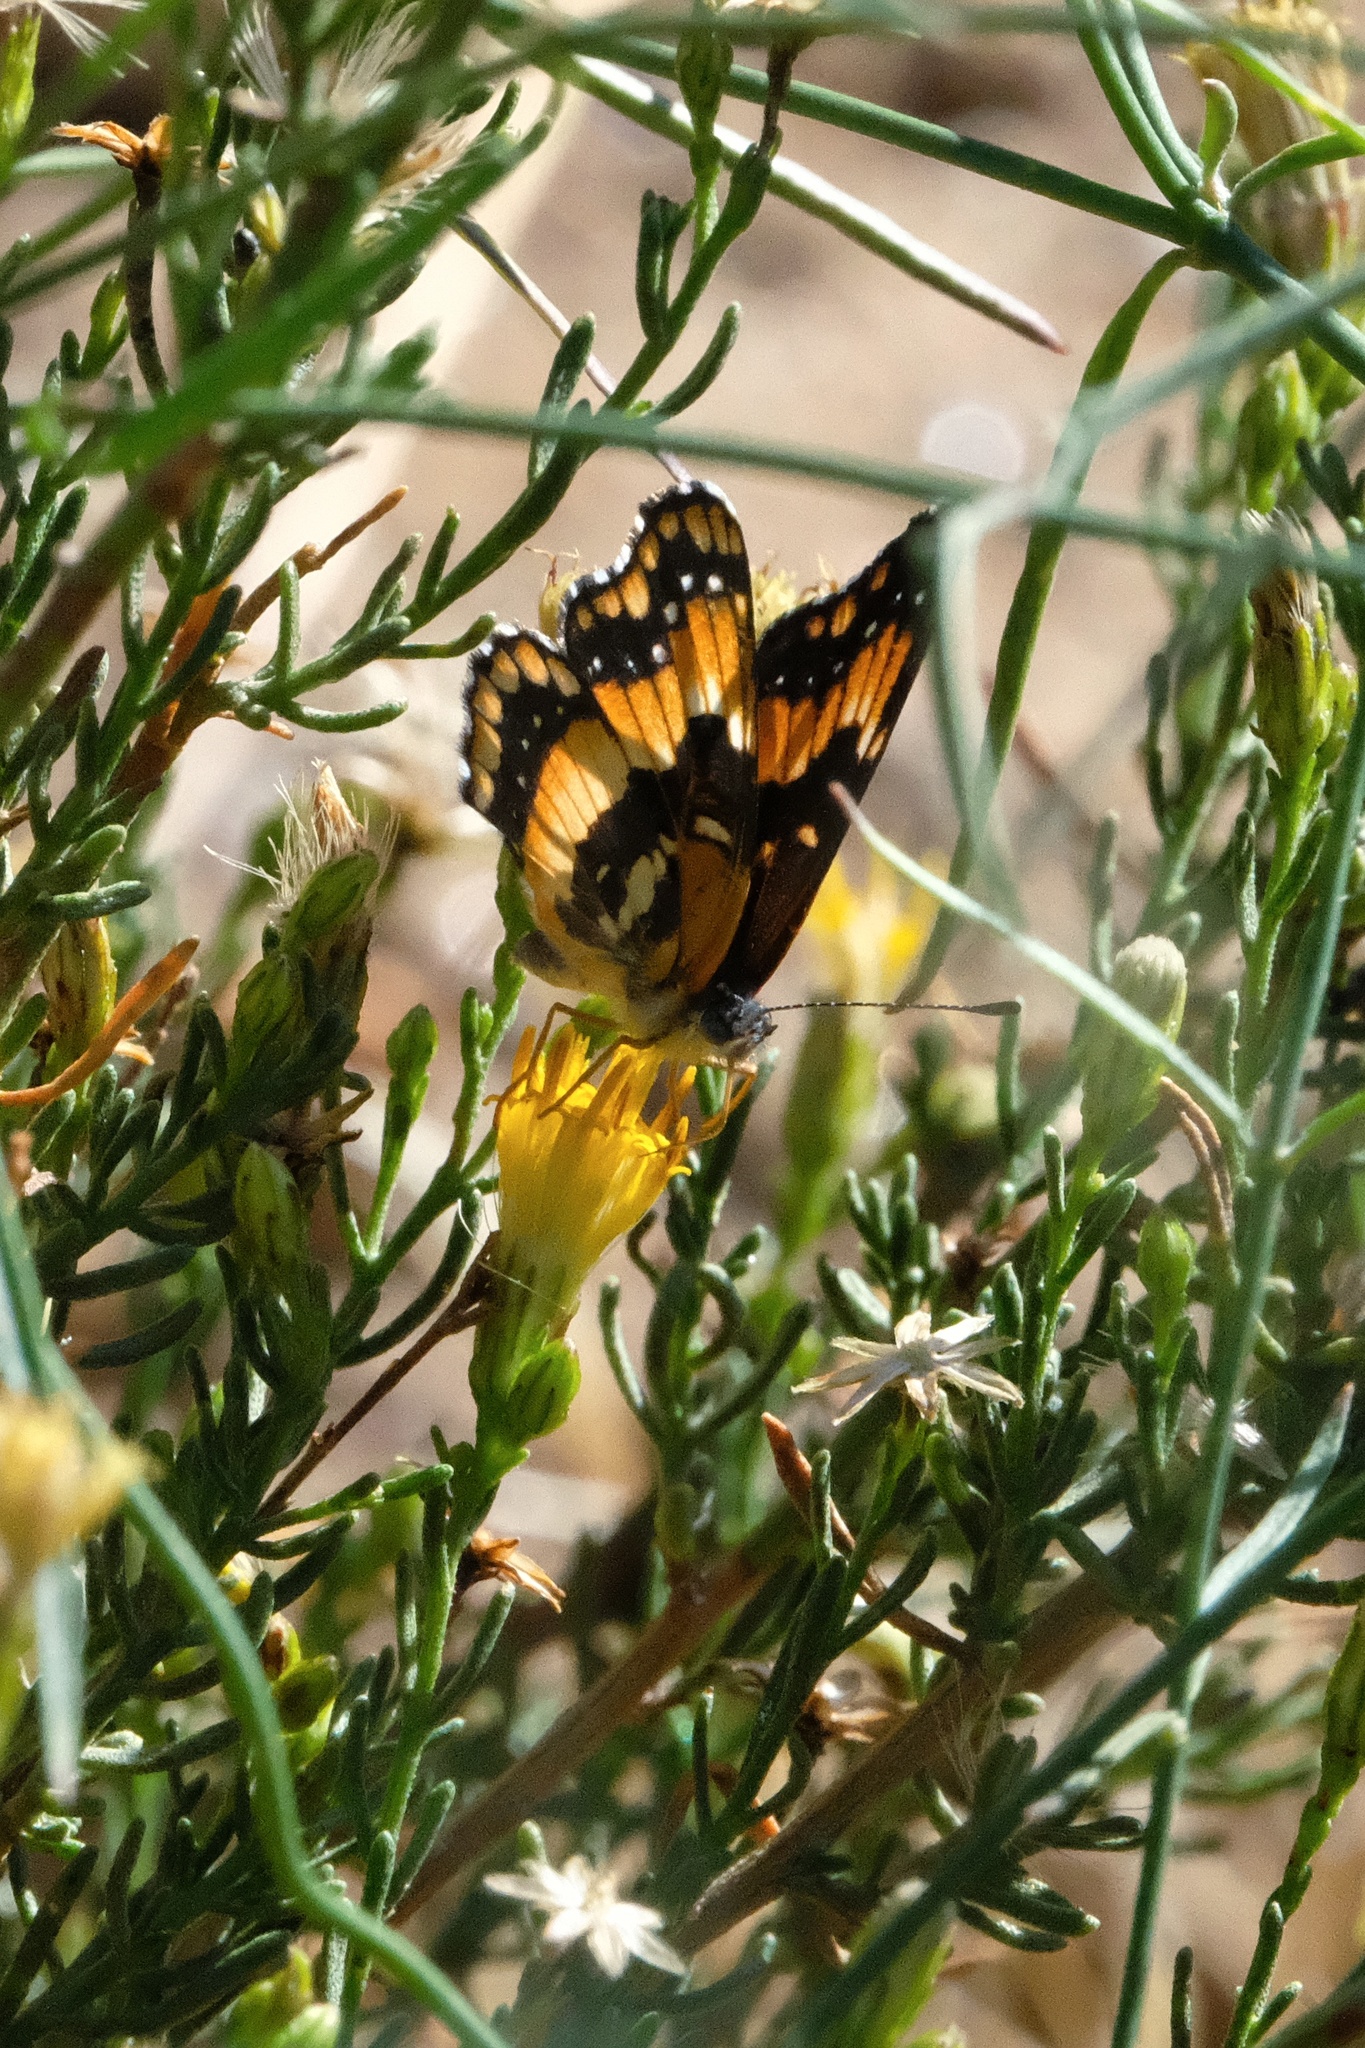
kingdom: Animalia
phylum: Arthropoda
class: Insecta
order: Lepidoptera
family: Nymphalidae
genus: Chlosyne
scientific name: Chlosyne californica
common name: California patch
